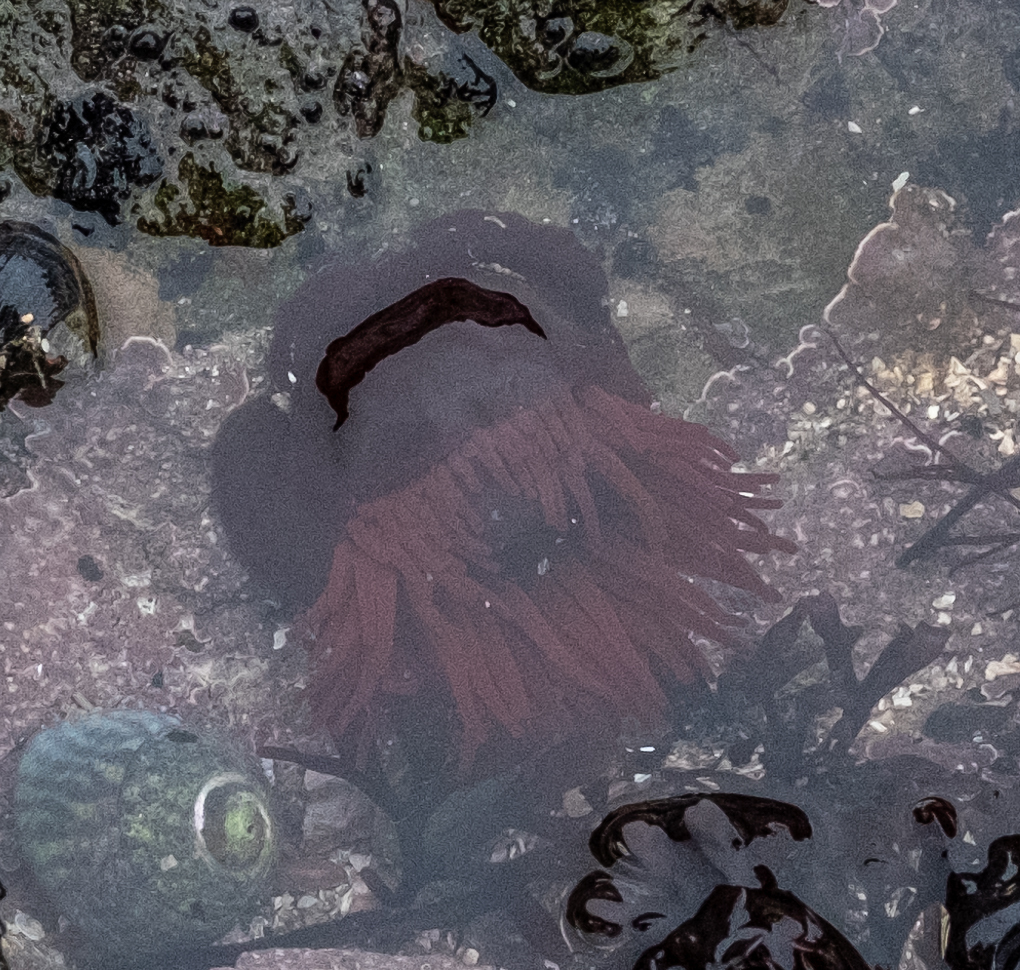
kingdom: Animalia
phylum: Cnidaria
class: Anthozoa
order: Actiniaria
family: Actiniidae
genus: Actinia
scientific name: Actinia equina
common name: Beadlet anemone
